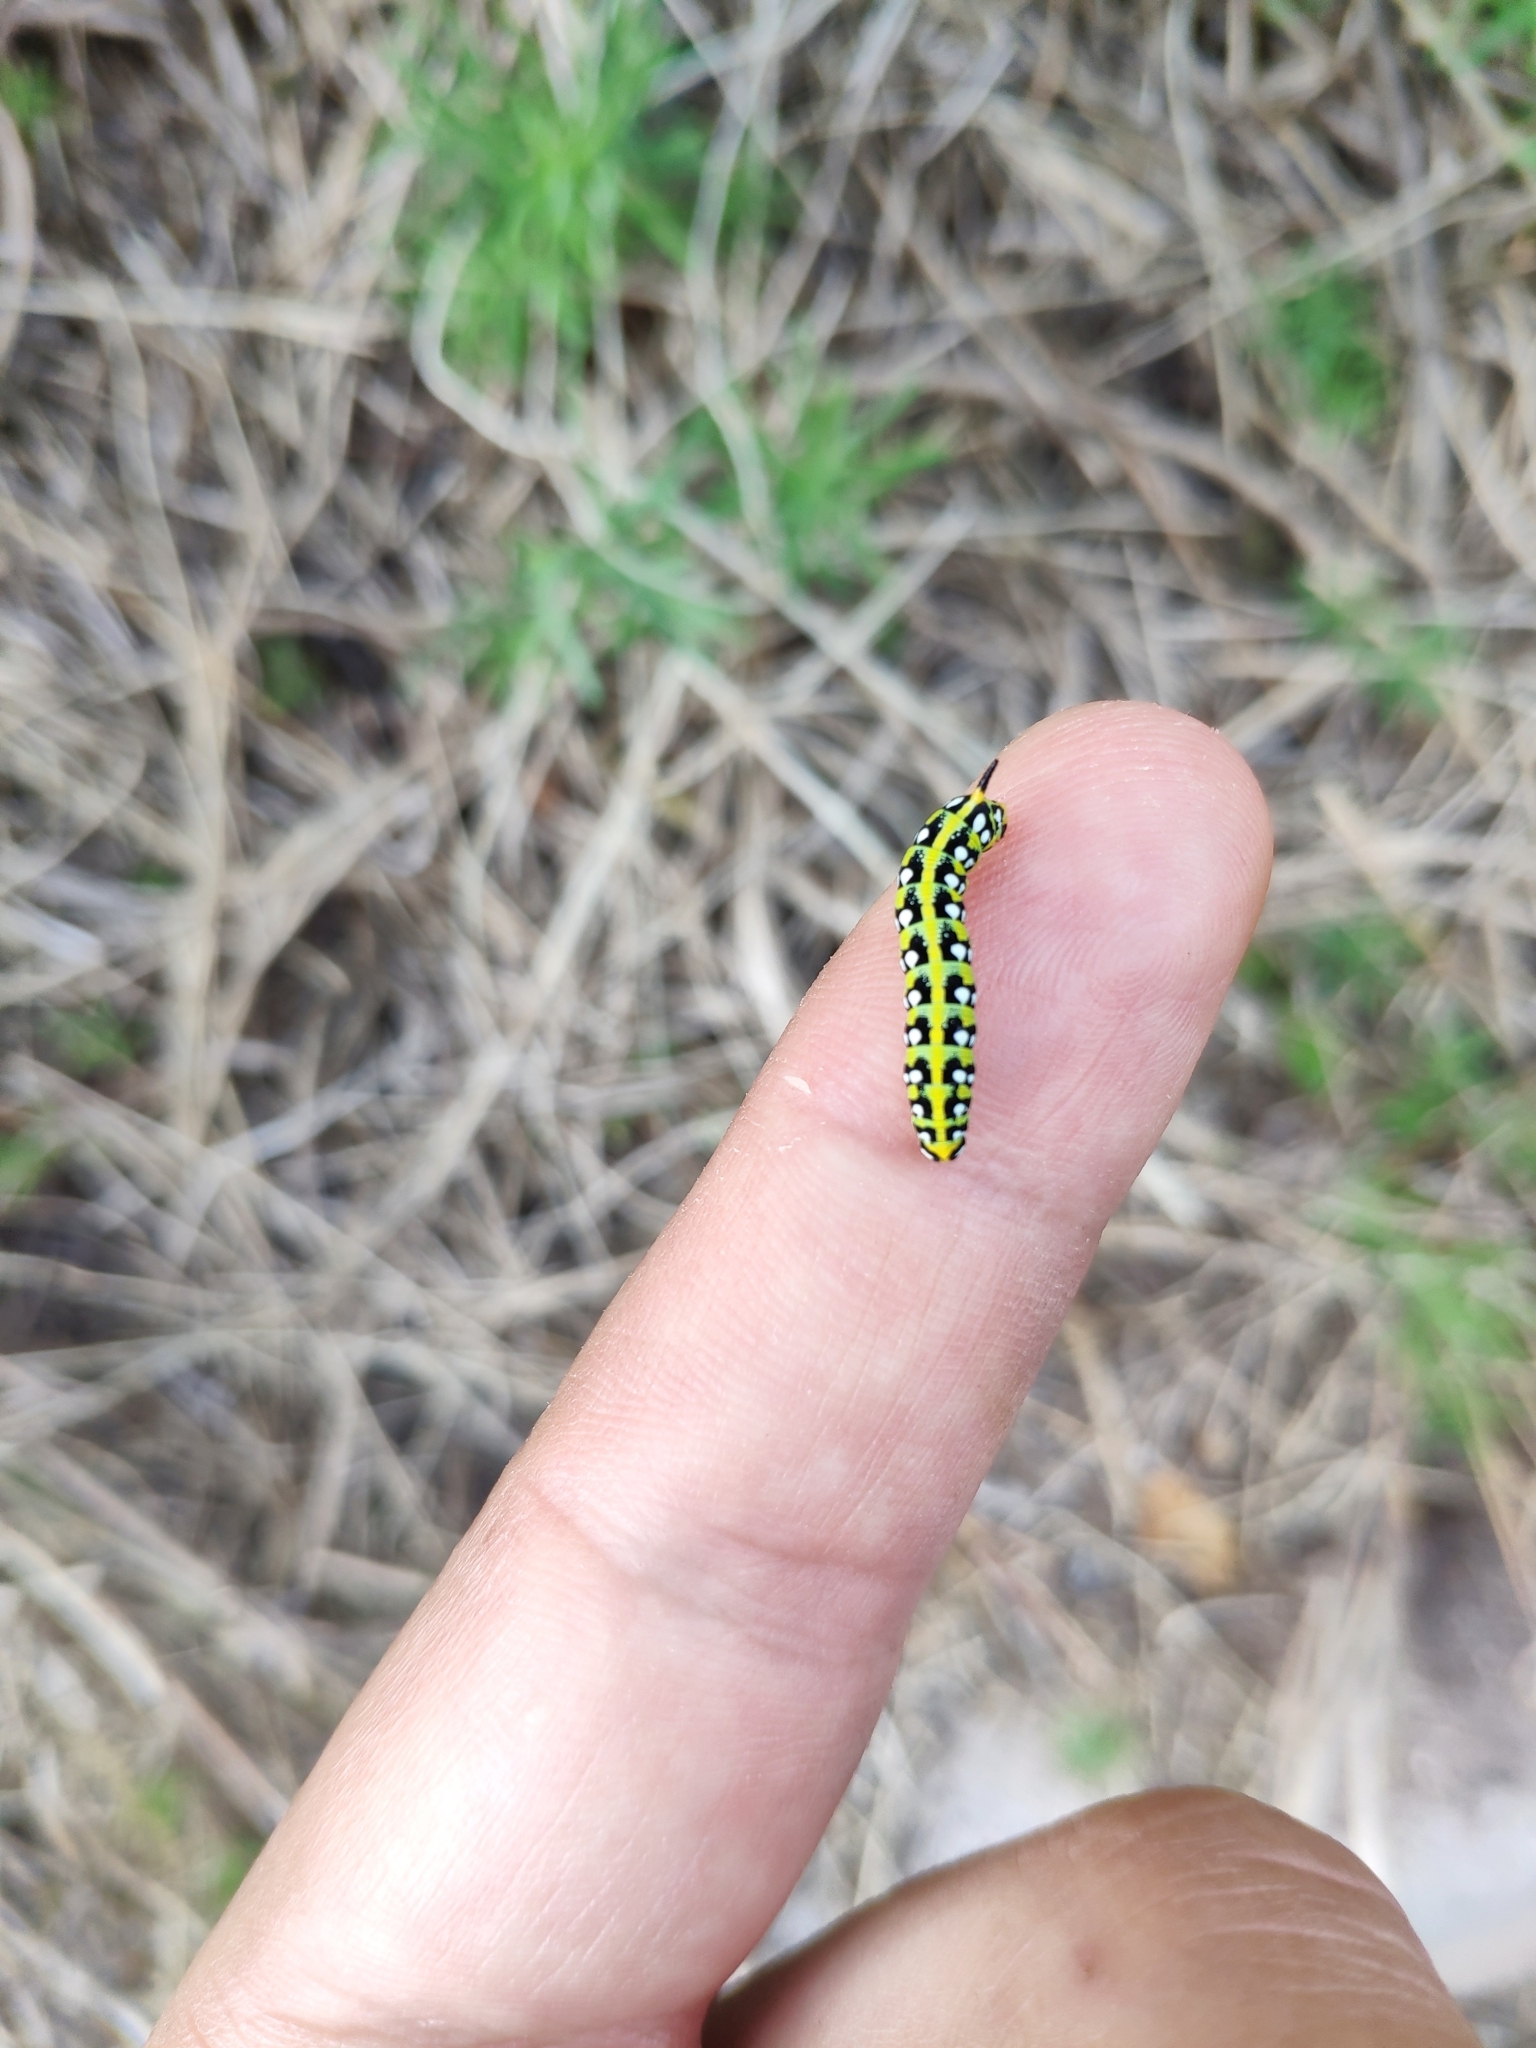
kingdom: Animalia
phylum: Arthropoda
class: Insecta
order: Lepidoptera
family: Sphingidae
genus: Hyles
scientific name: Hyles euphorbiae
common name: Spurge hawk-moth
